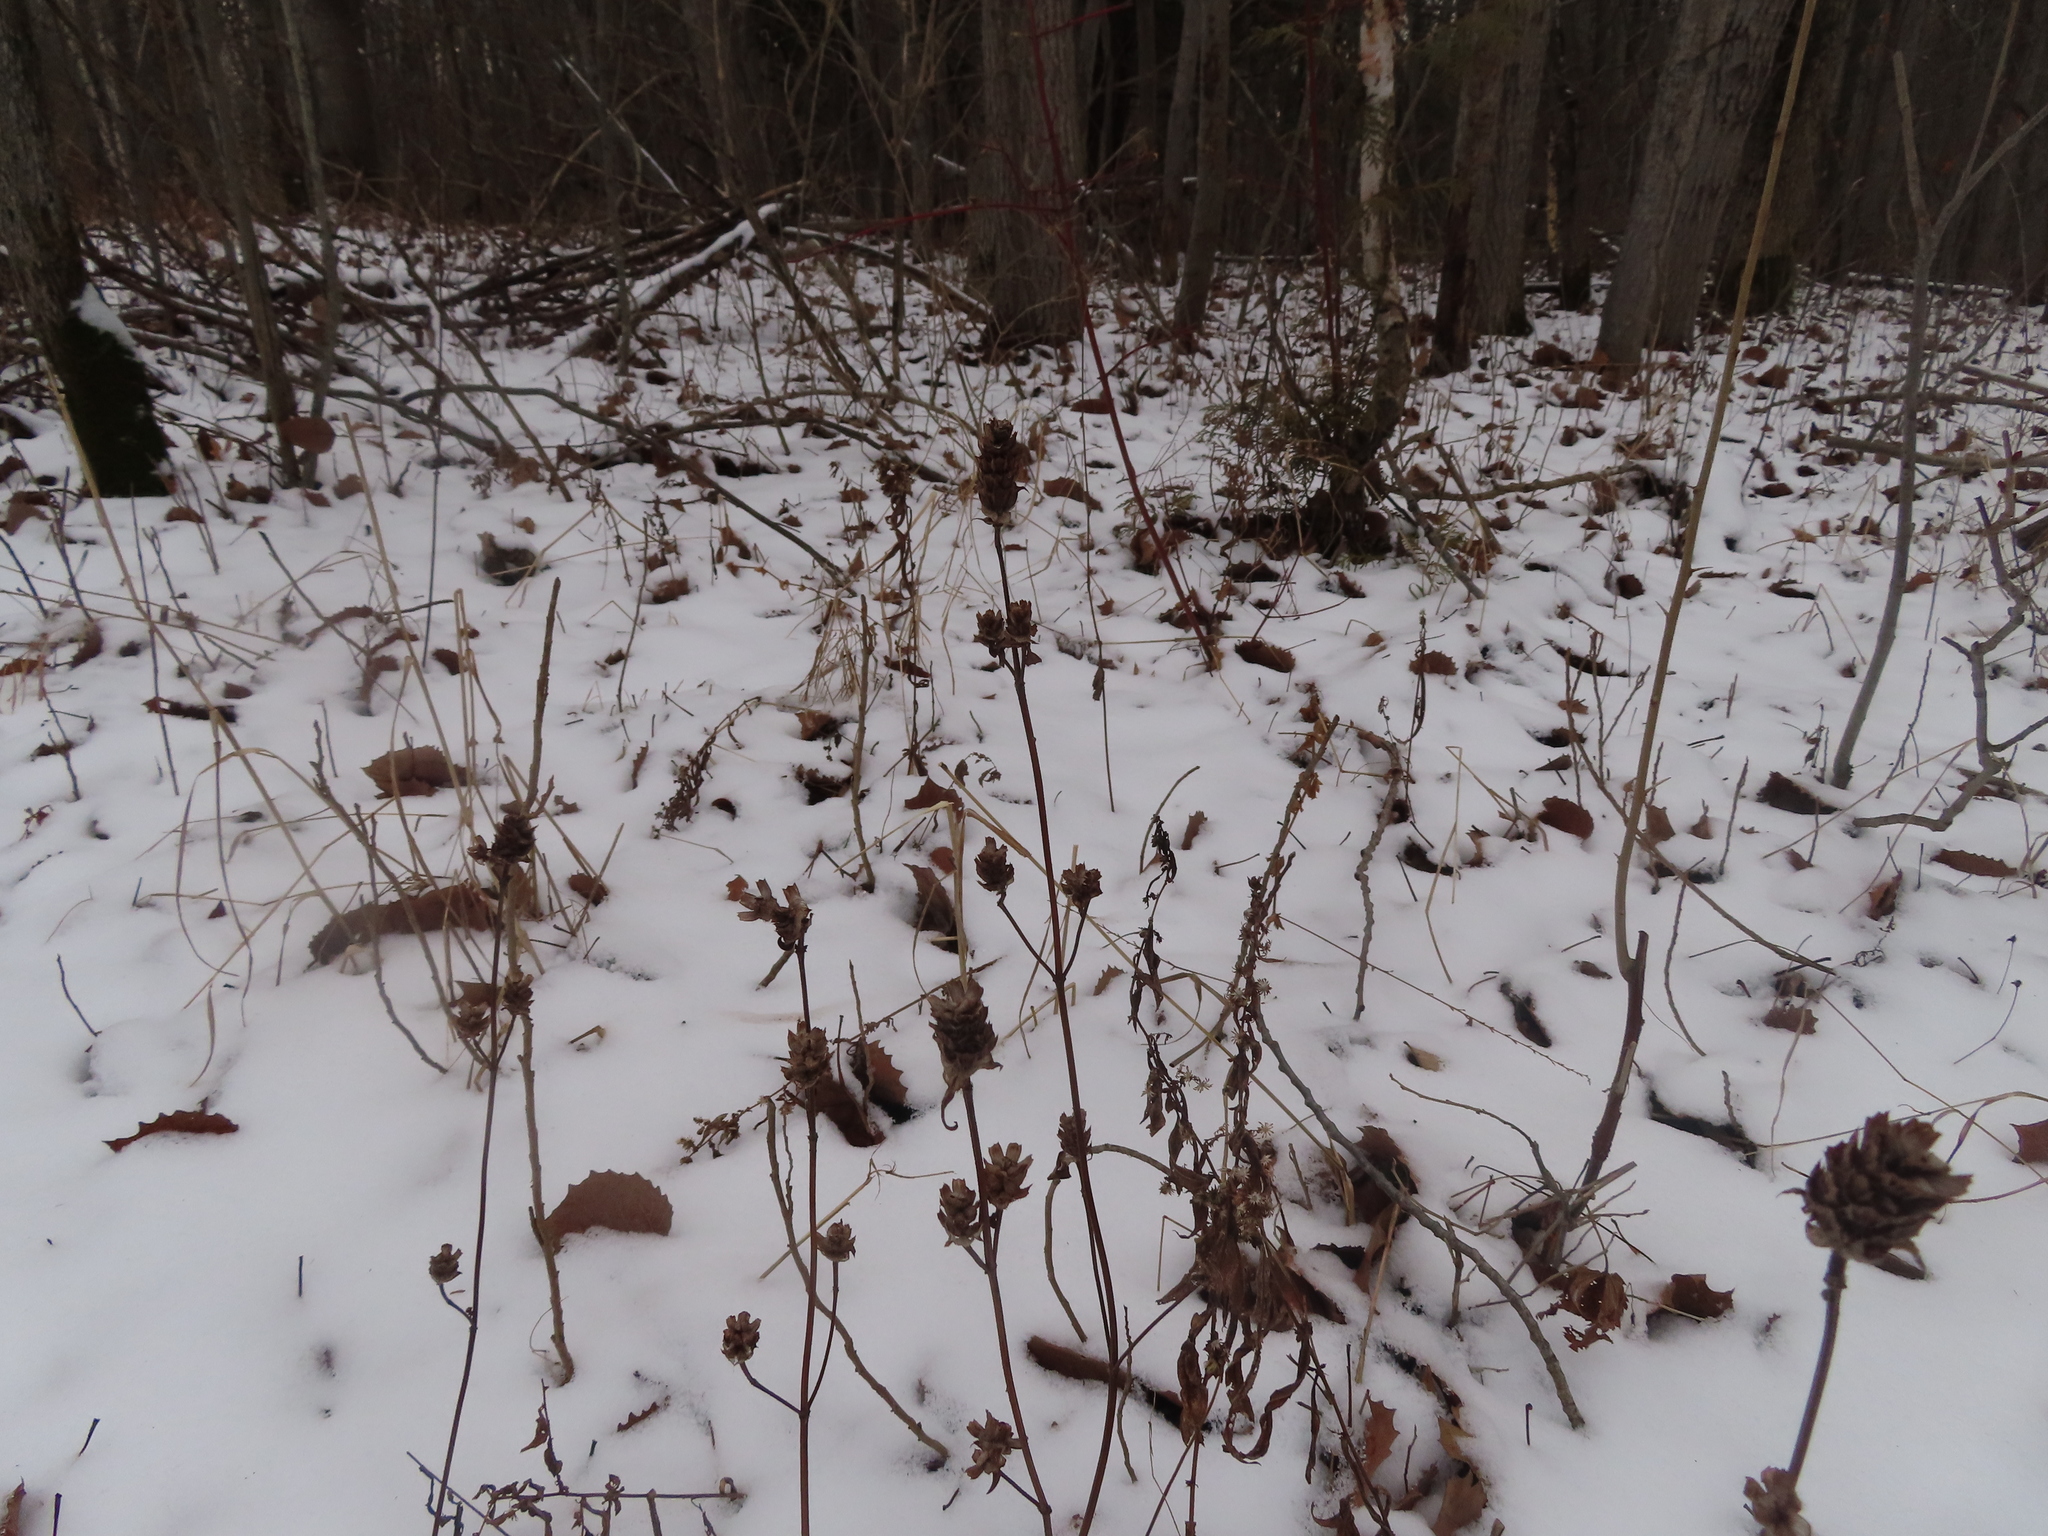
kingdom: Plantae
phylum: Tracheophyta
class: Magnoliopsida
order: Lamiales
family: Lamiaceae
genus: Prunella
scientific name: Prunella vulgaris
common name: Heal-all
